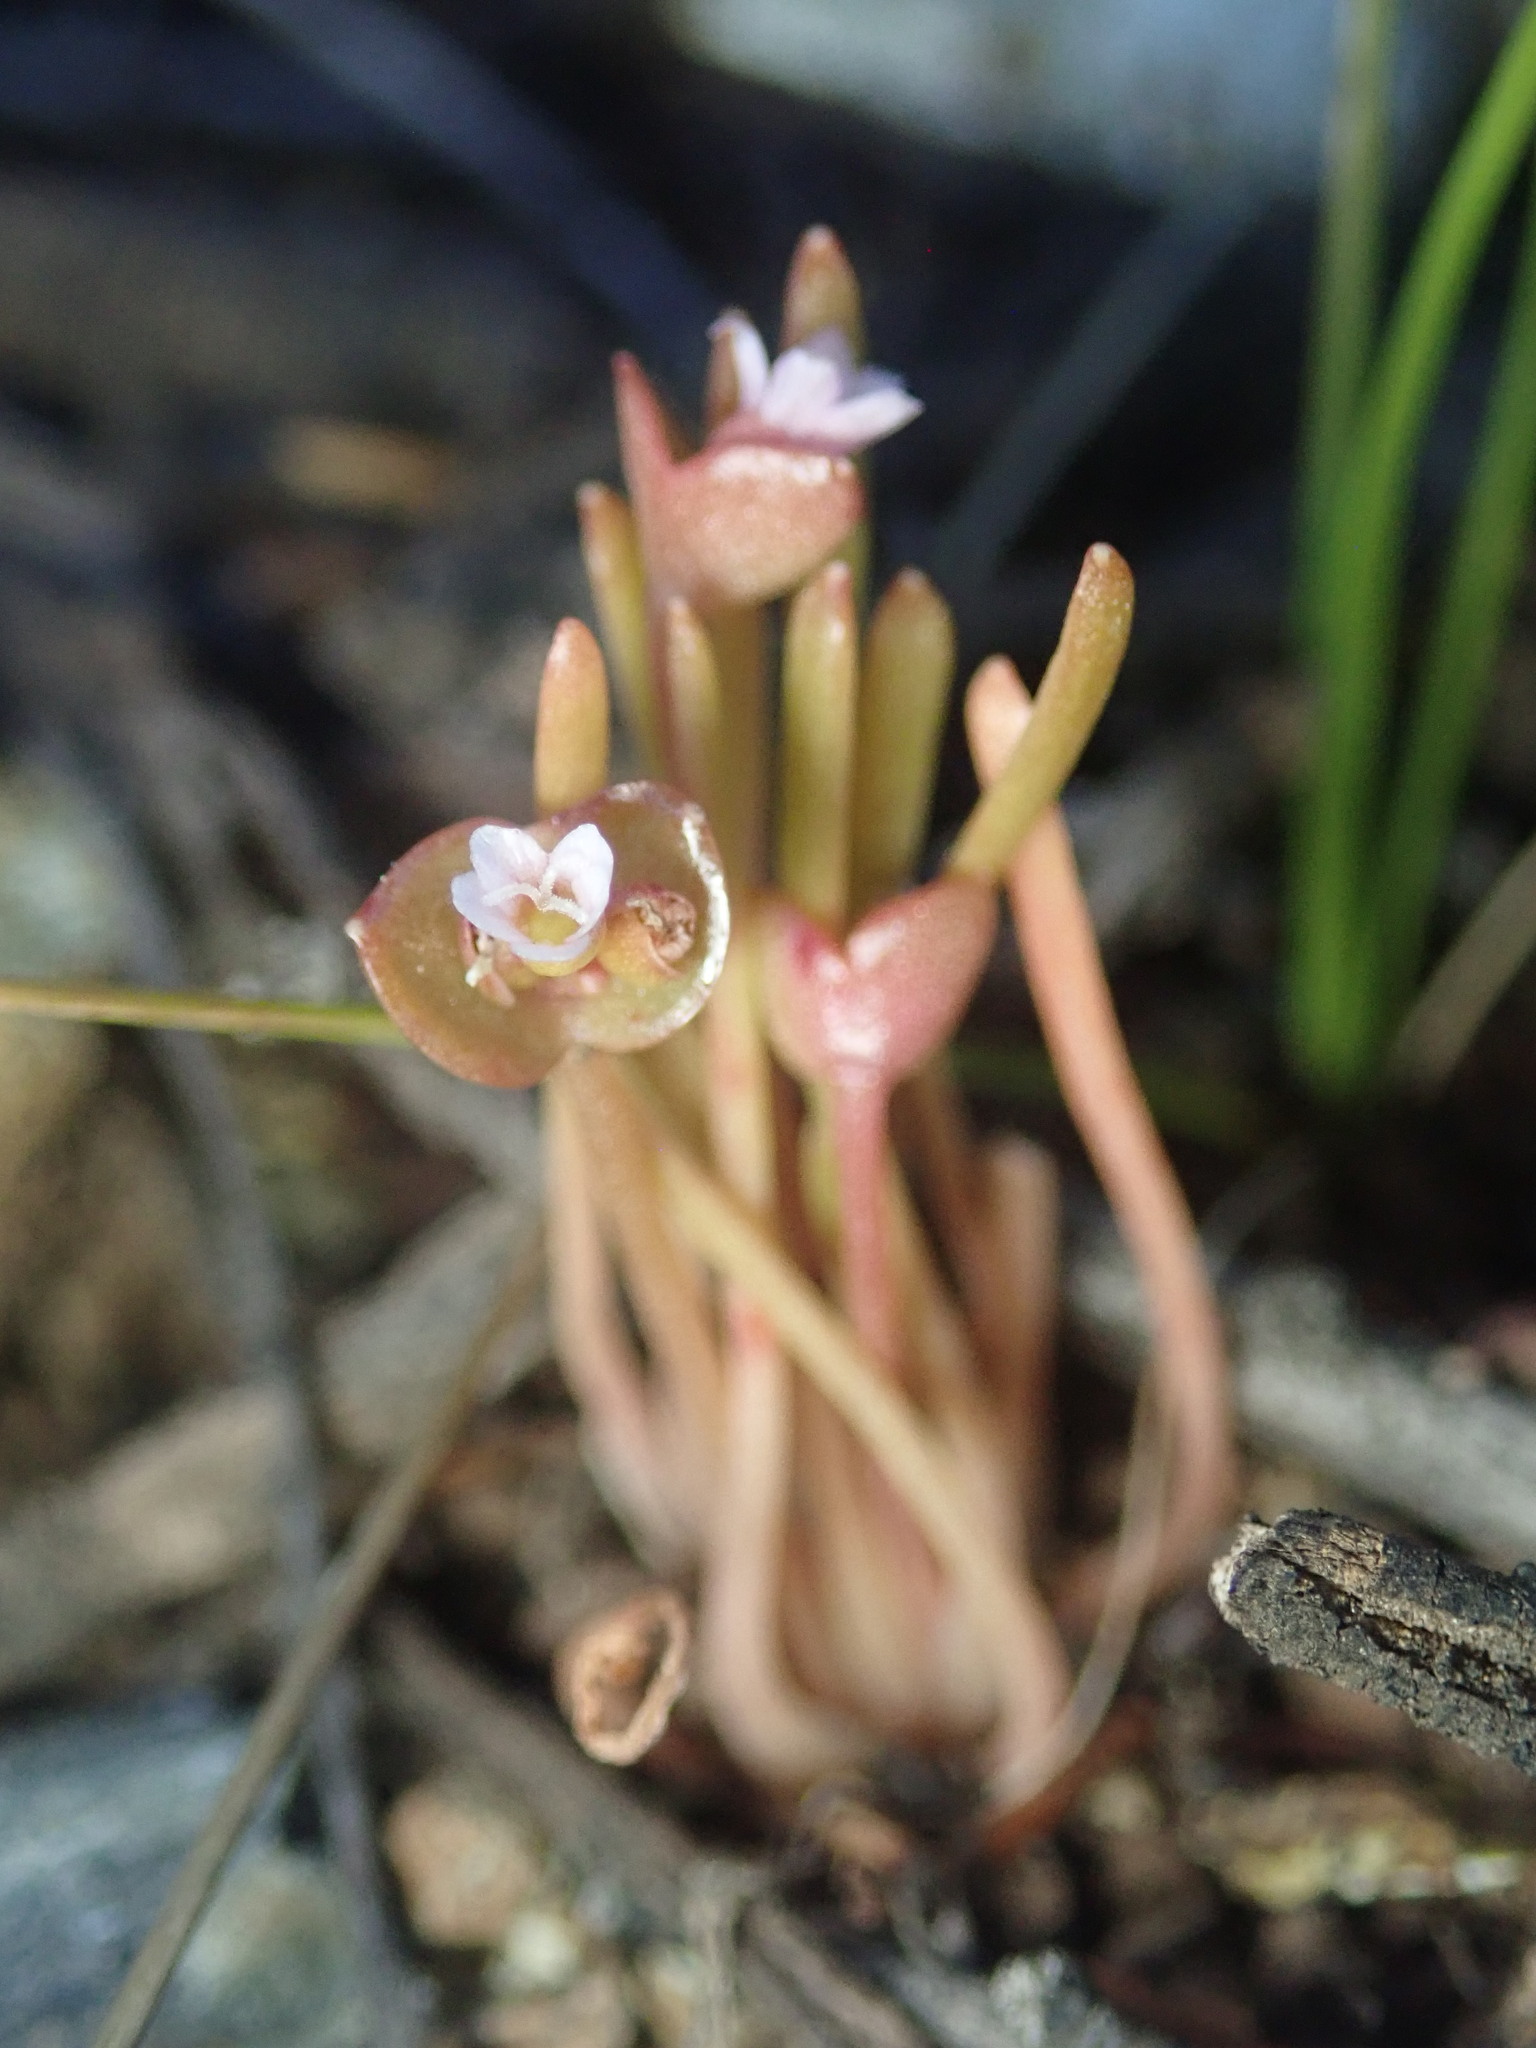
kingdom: Plantae
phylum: Tracheophyta
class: Magnoliopsida
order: Caryophyllales
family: Montiaceae
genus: Claytonia
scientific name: Claytonia parviflora
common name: Indian-lettuce
